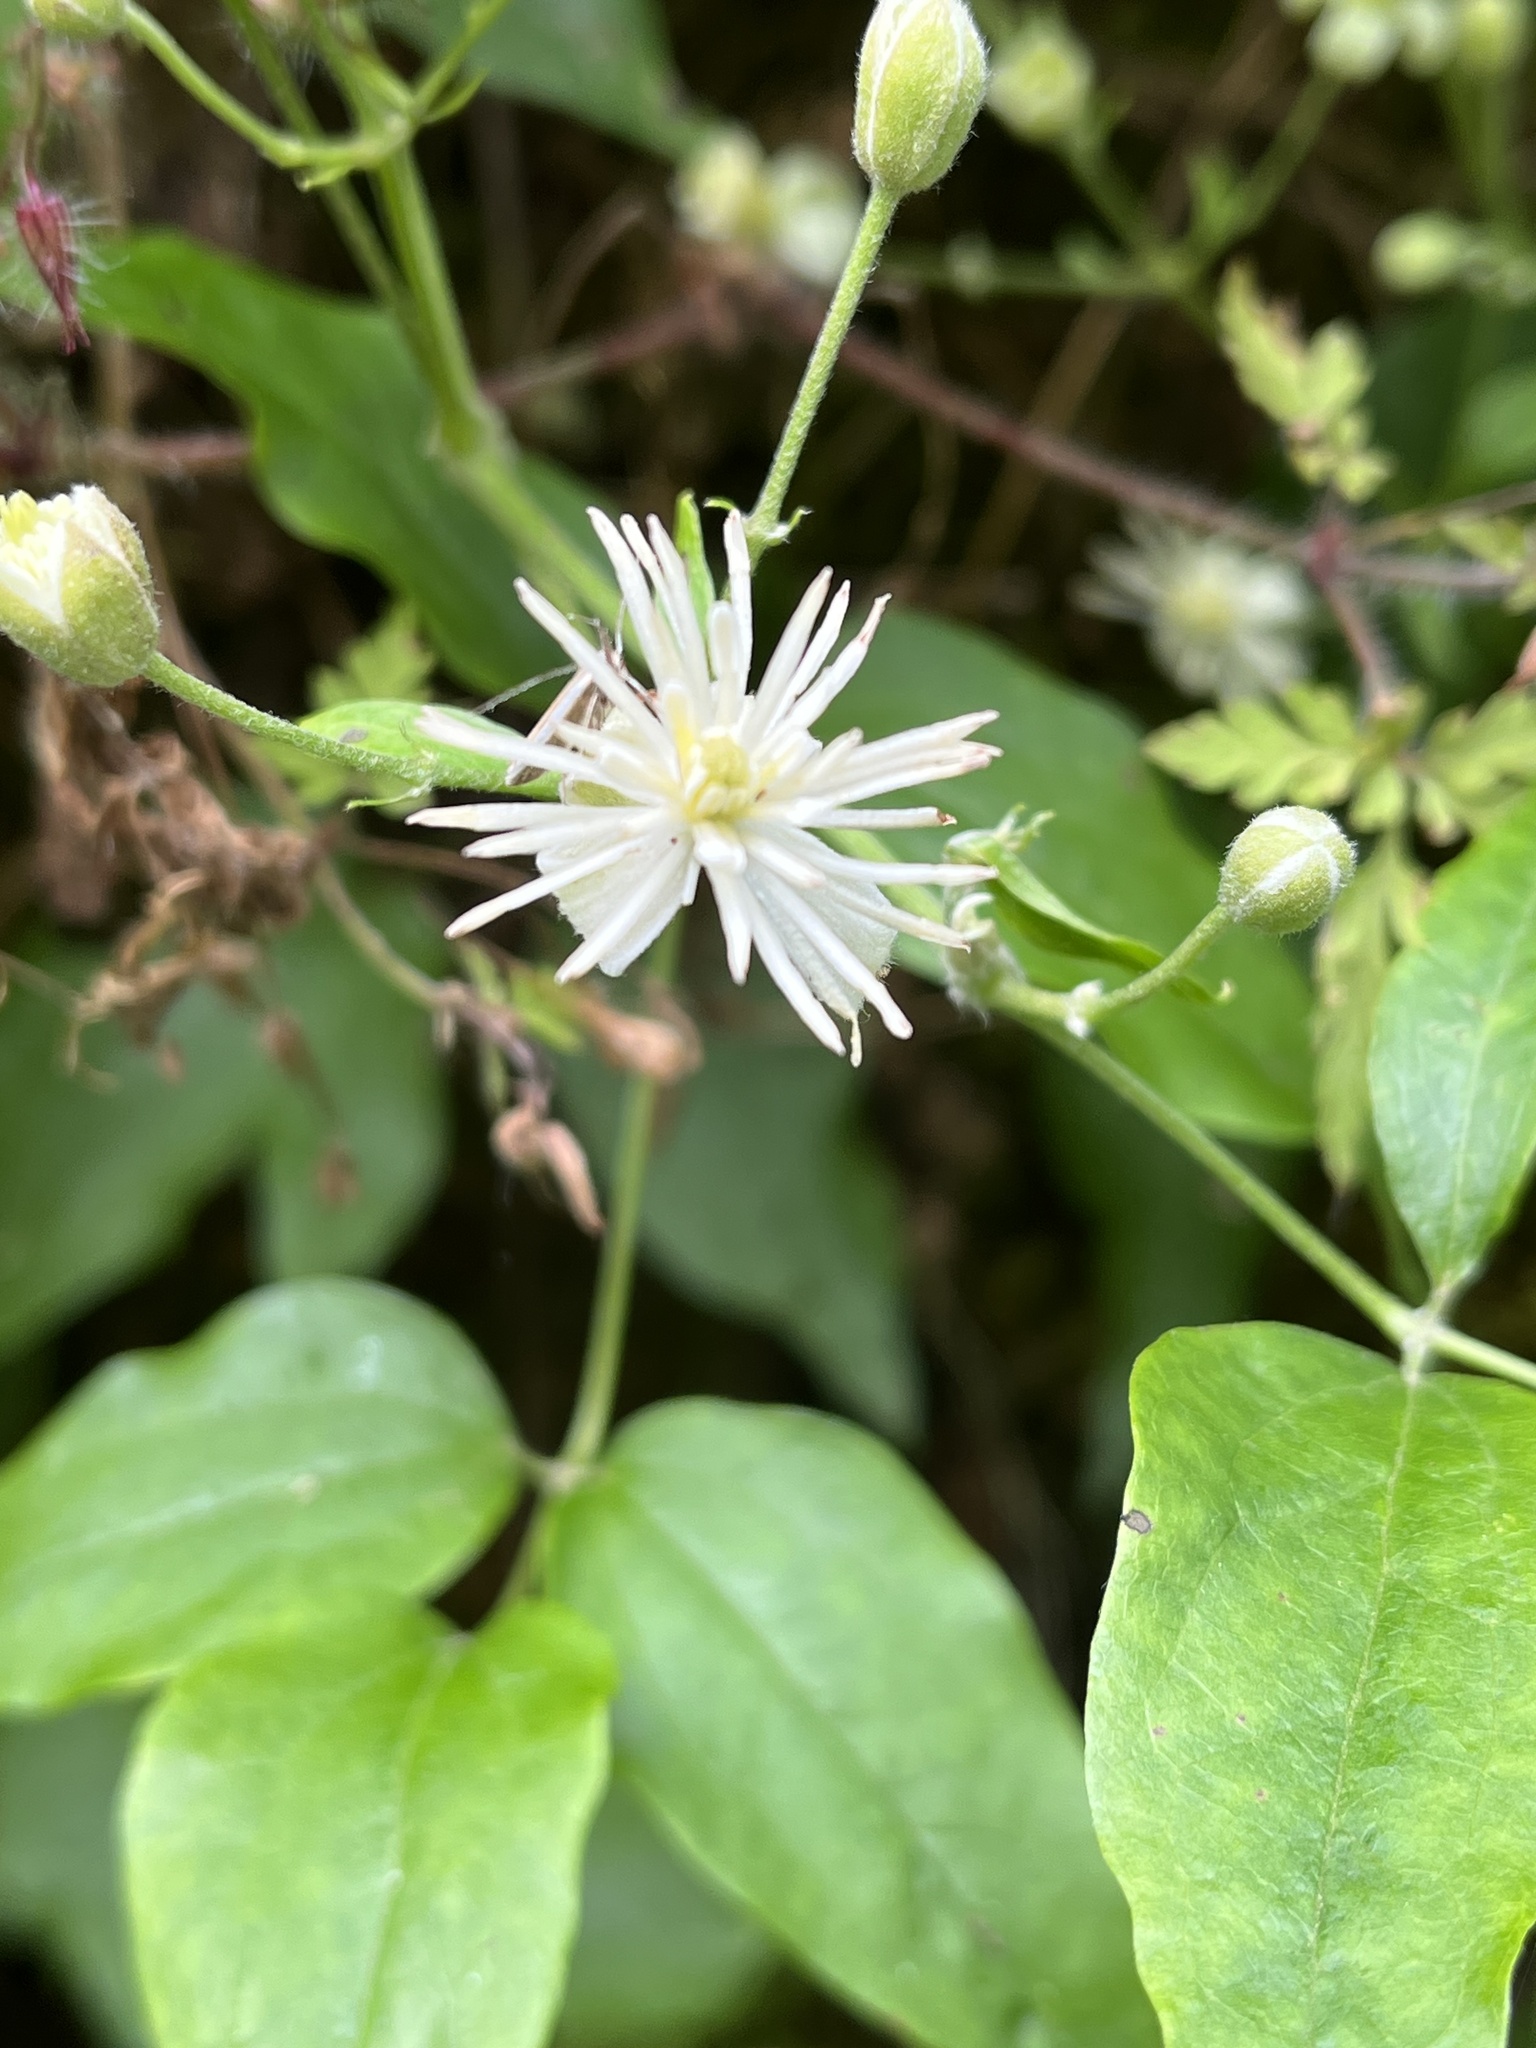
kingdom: Plantae
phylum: Tracheophyta
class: Magnoliopsida
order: Ranunculales
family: Ranunculaceae
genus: Clematis
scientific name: Clematis vitalba
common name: Evergreen clematis
